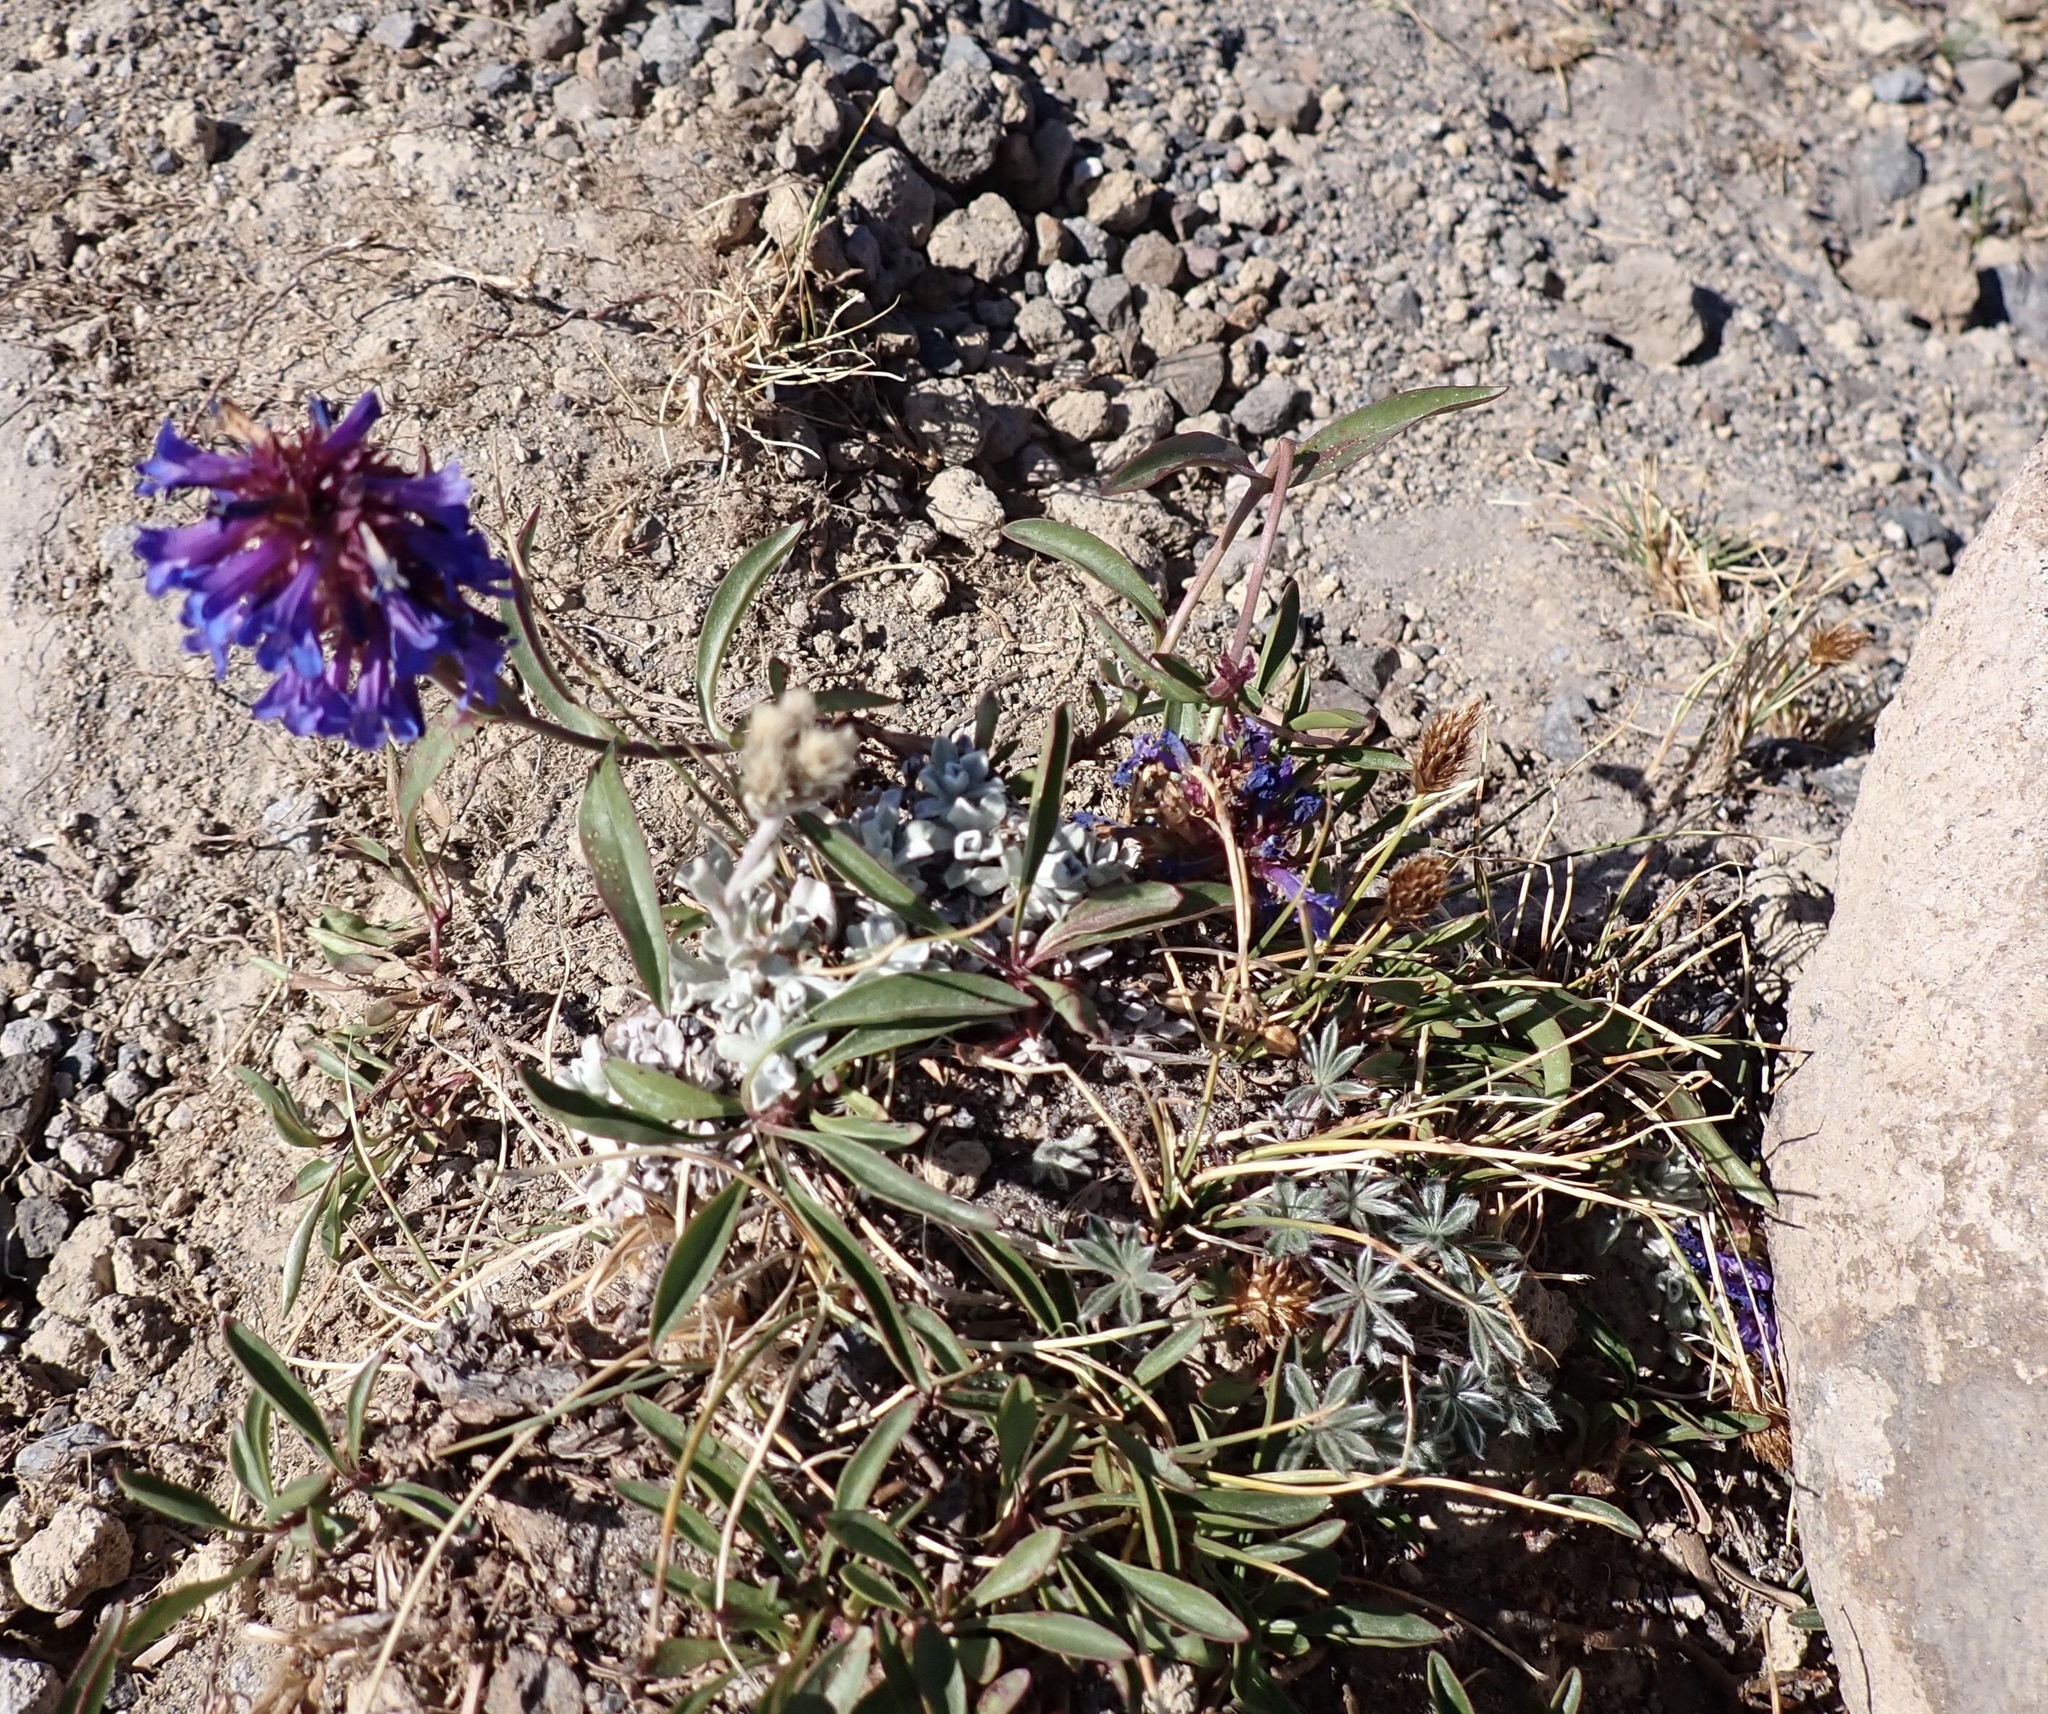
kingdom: Plantae
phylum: Tracheophyta
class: Magnoliopsida
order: Lamiales
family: Plantaginaceae
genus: Penstemon
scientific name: Penstemon procerus
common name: Small-flower penstemon
